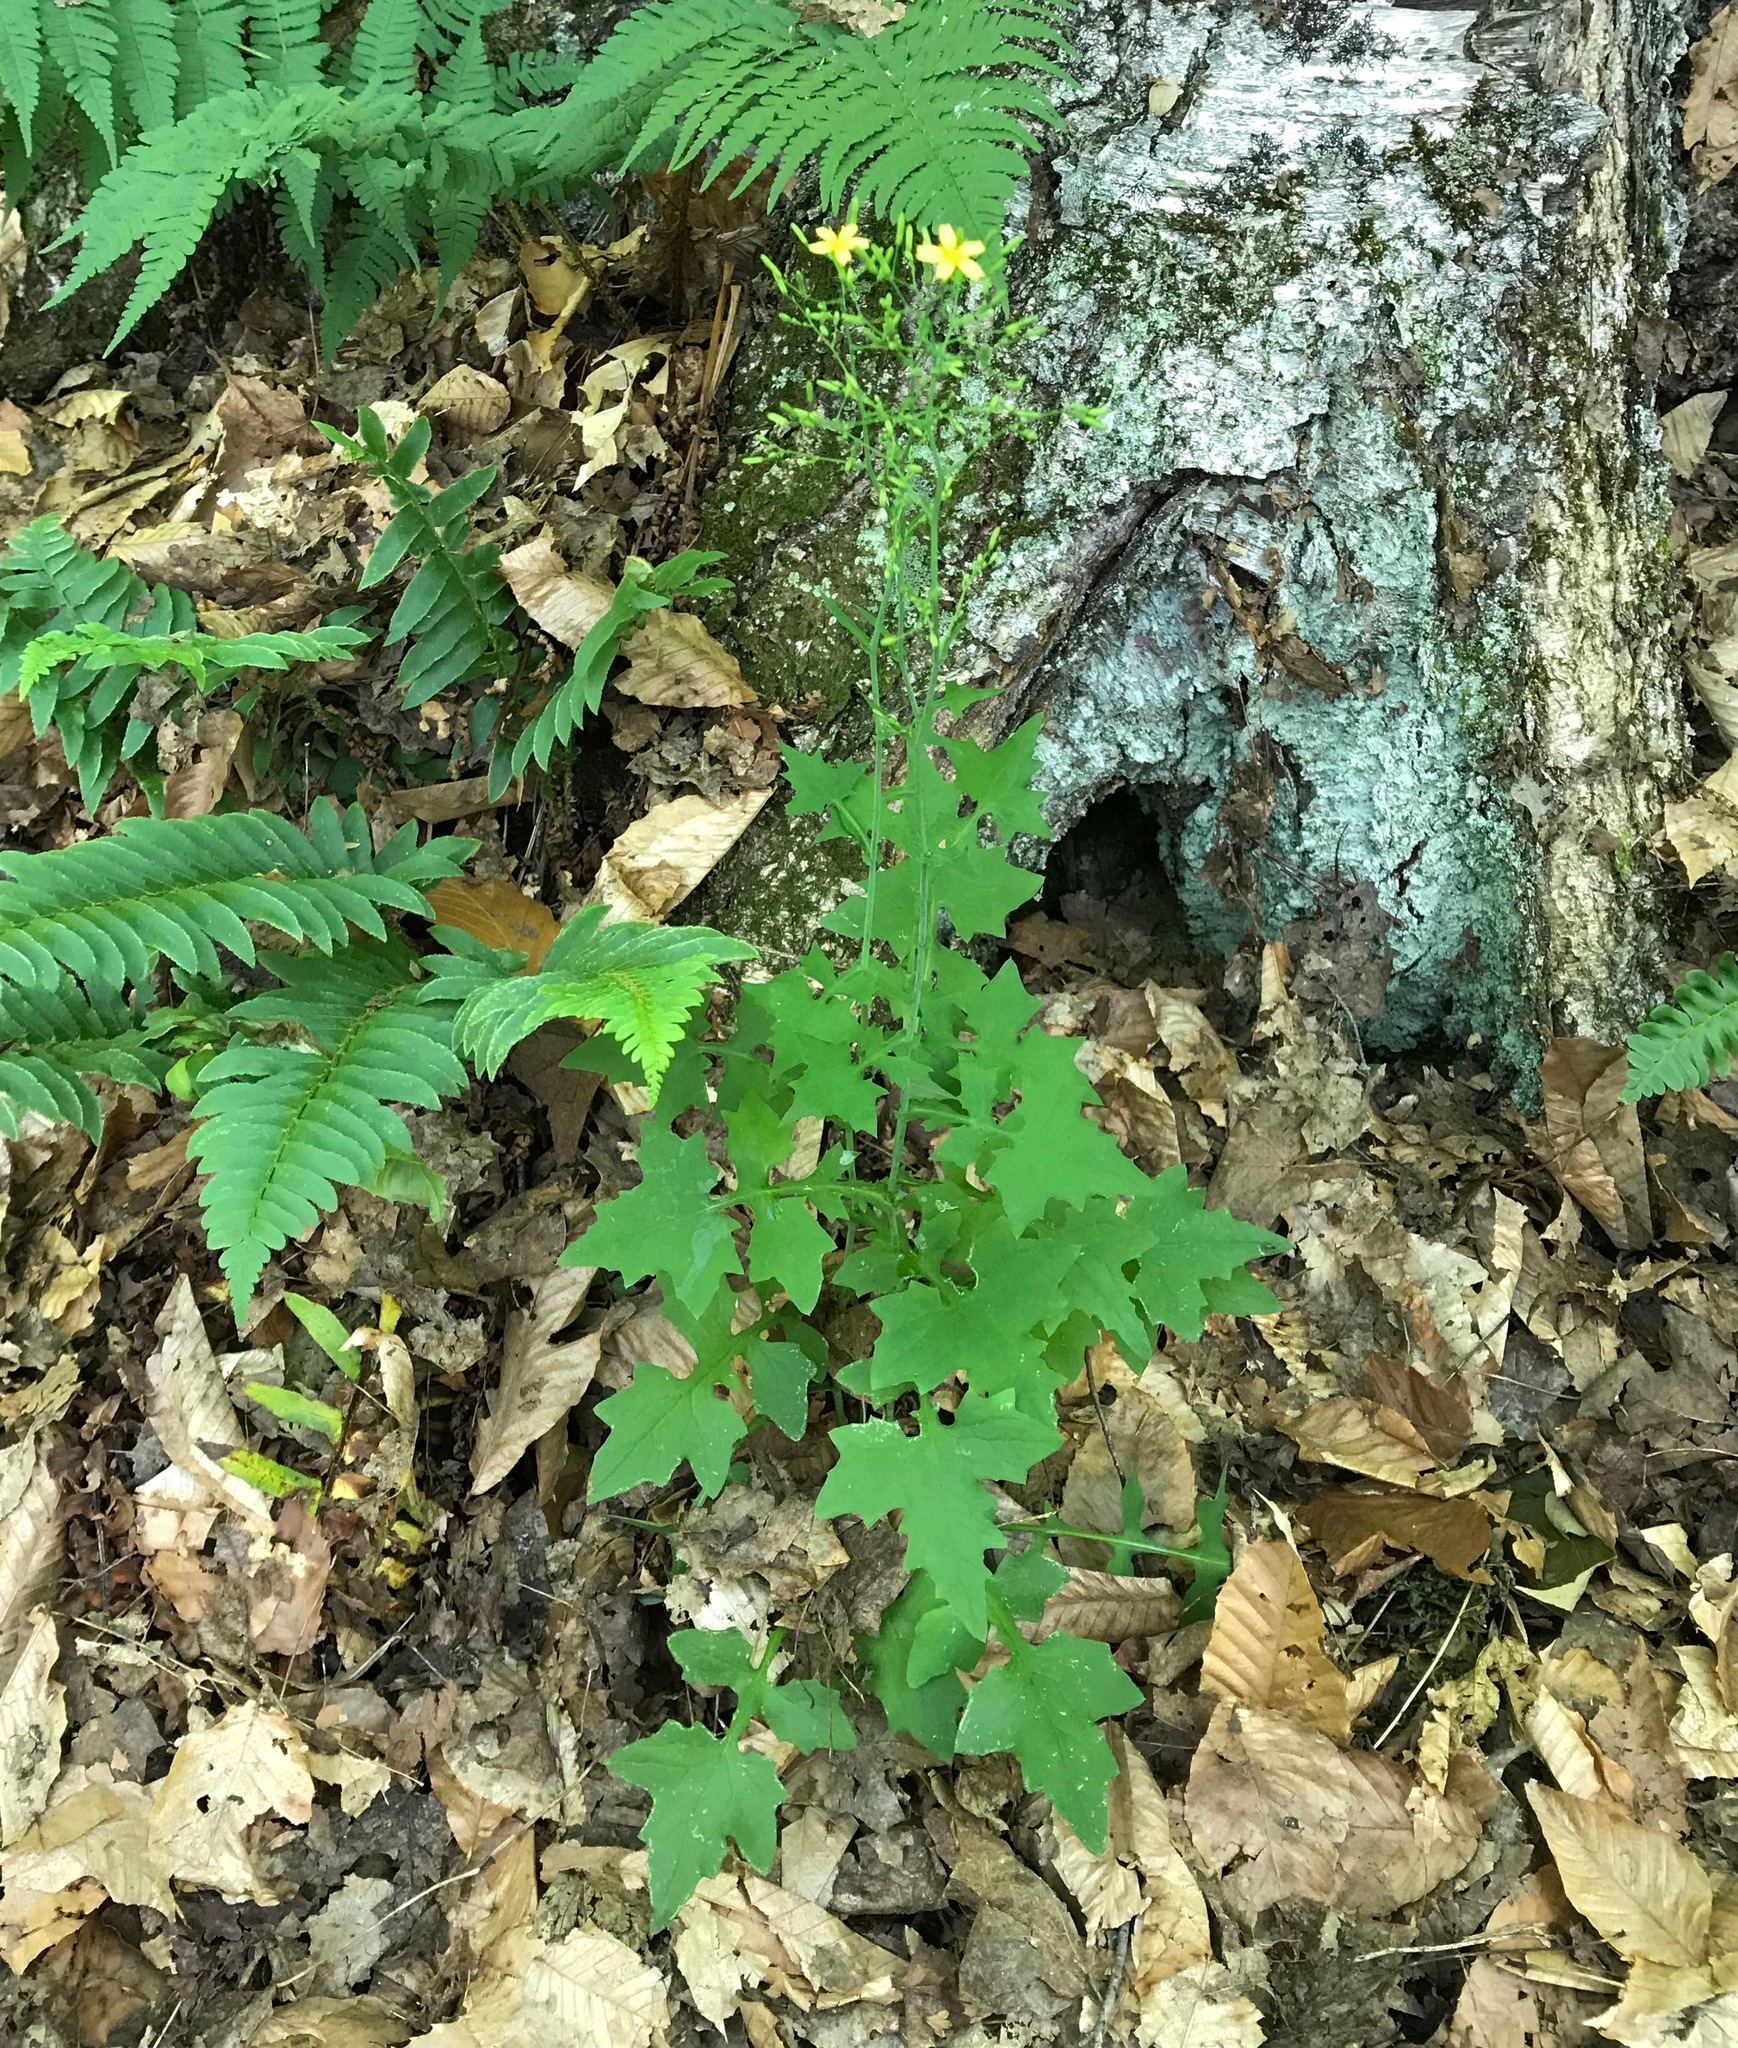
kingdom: Plantae
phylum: Tracheophyta
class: Magnoliopsida
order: Asterales
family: Asteraceae
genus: Mycelis
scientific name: Mycelis muralis
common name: Wall lettuce
